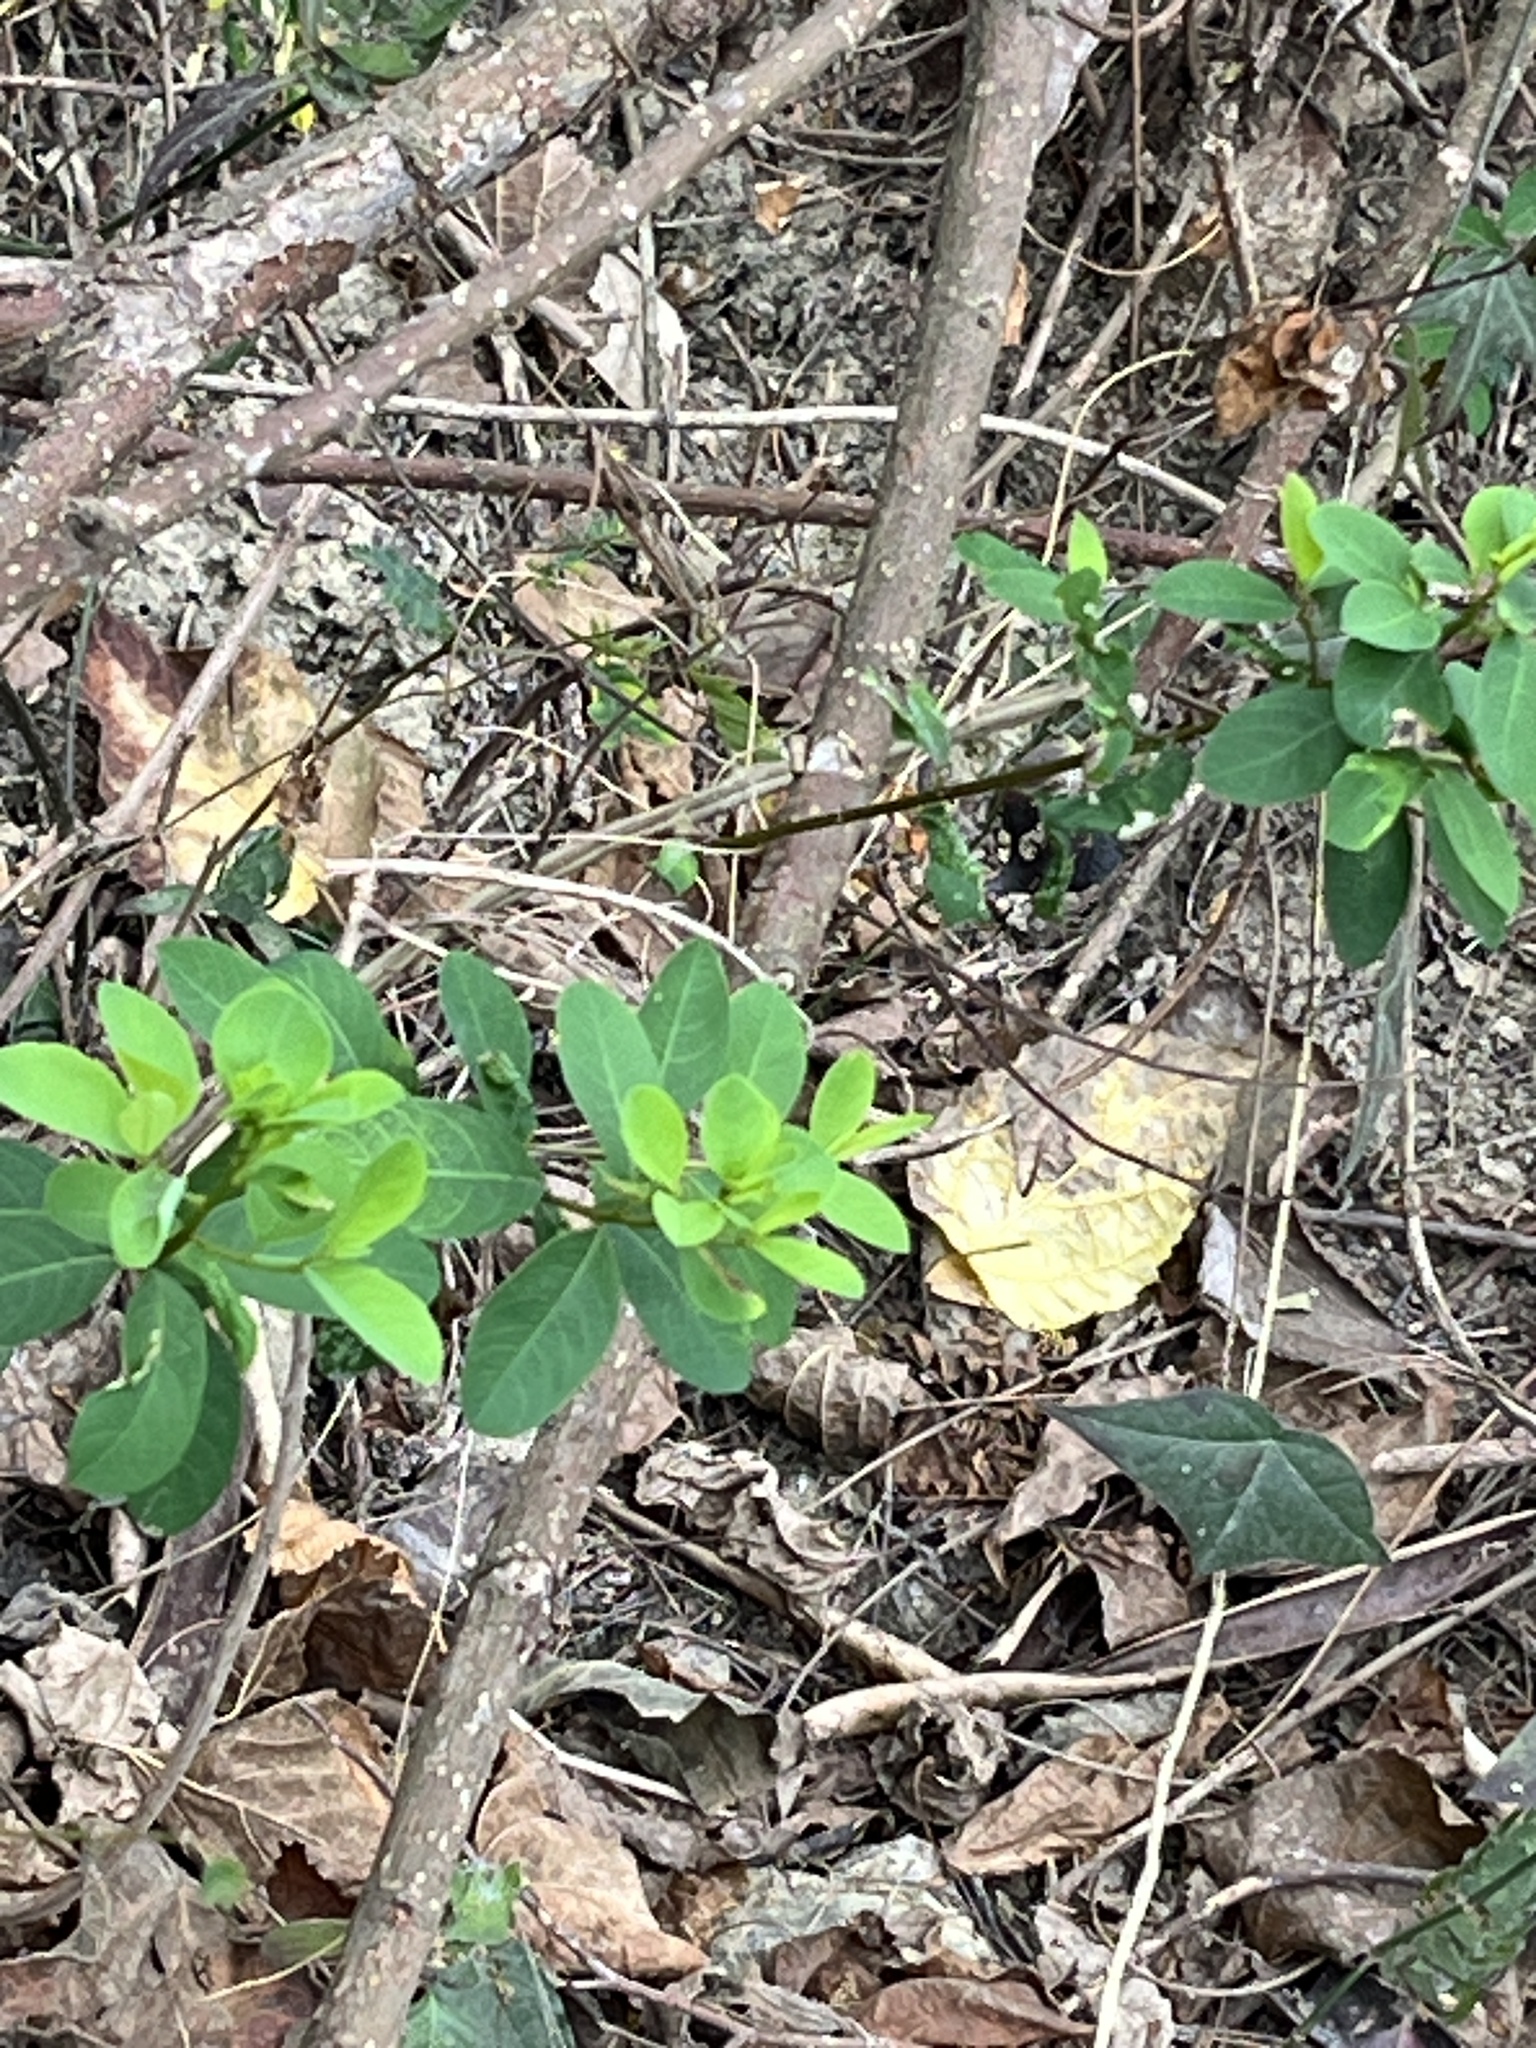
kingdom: Plantae
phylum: Tracheophyta
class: Magnoliopsida
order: Malpighiales
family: Phyllanthaceae
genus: Flueggea
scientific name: Flueggea virosa
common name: Common bushweed
